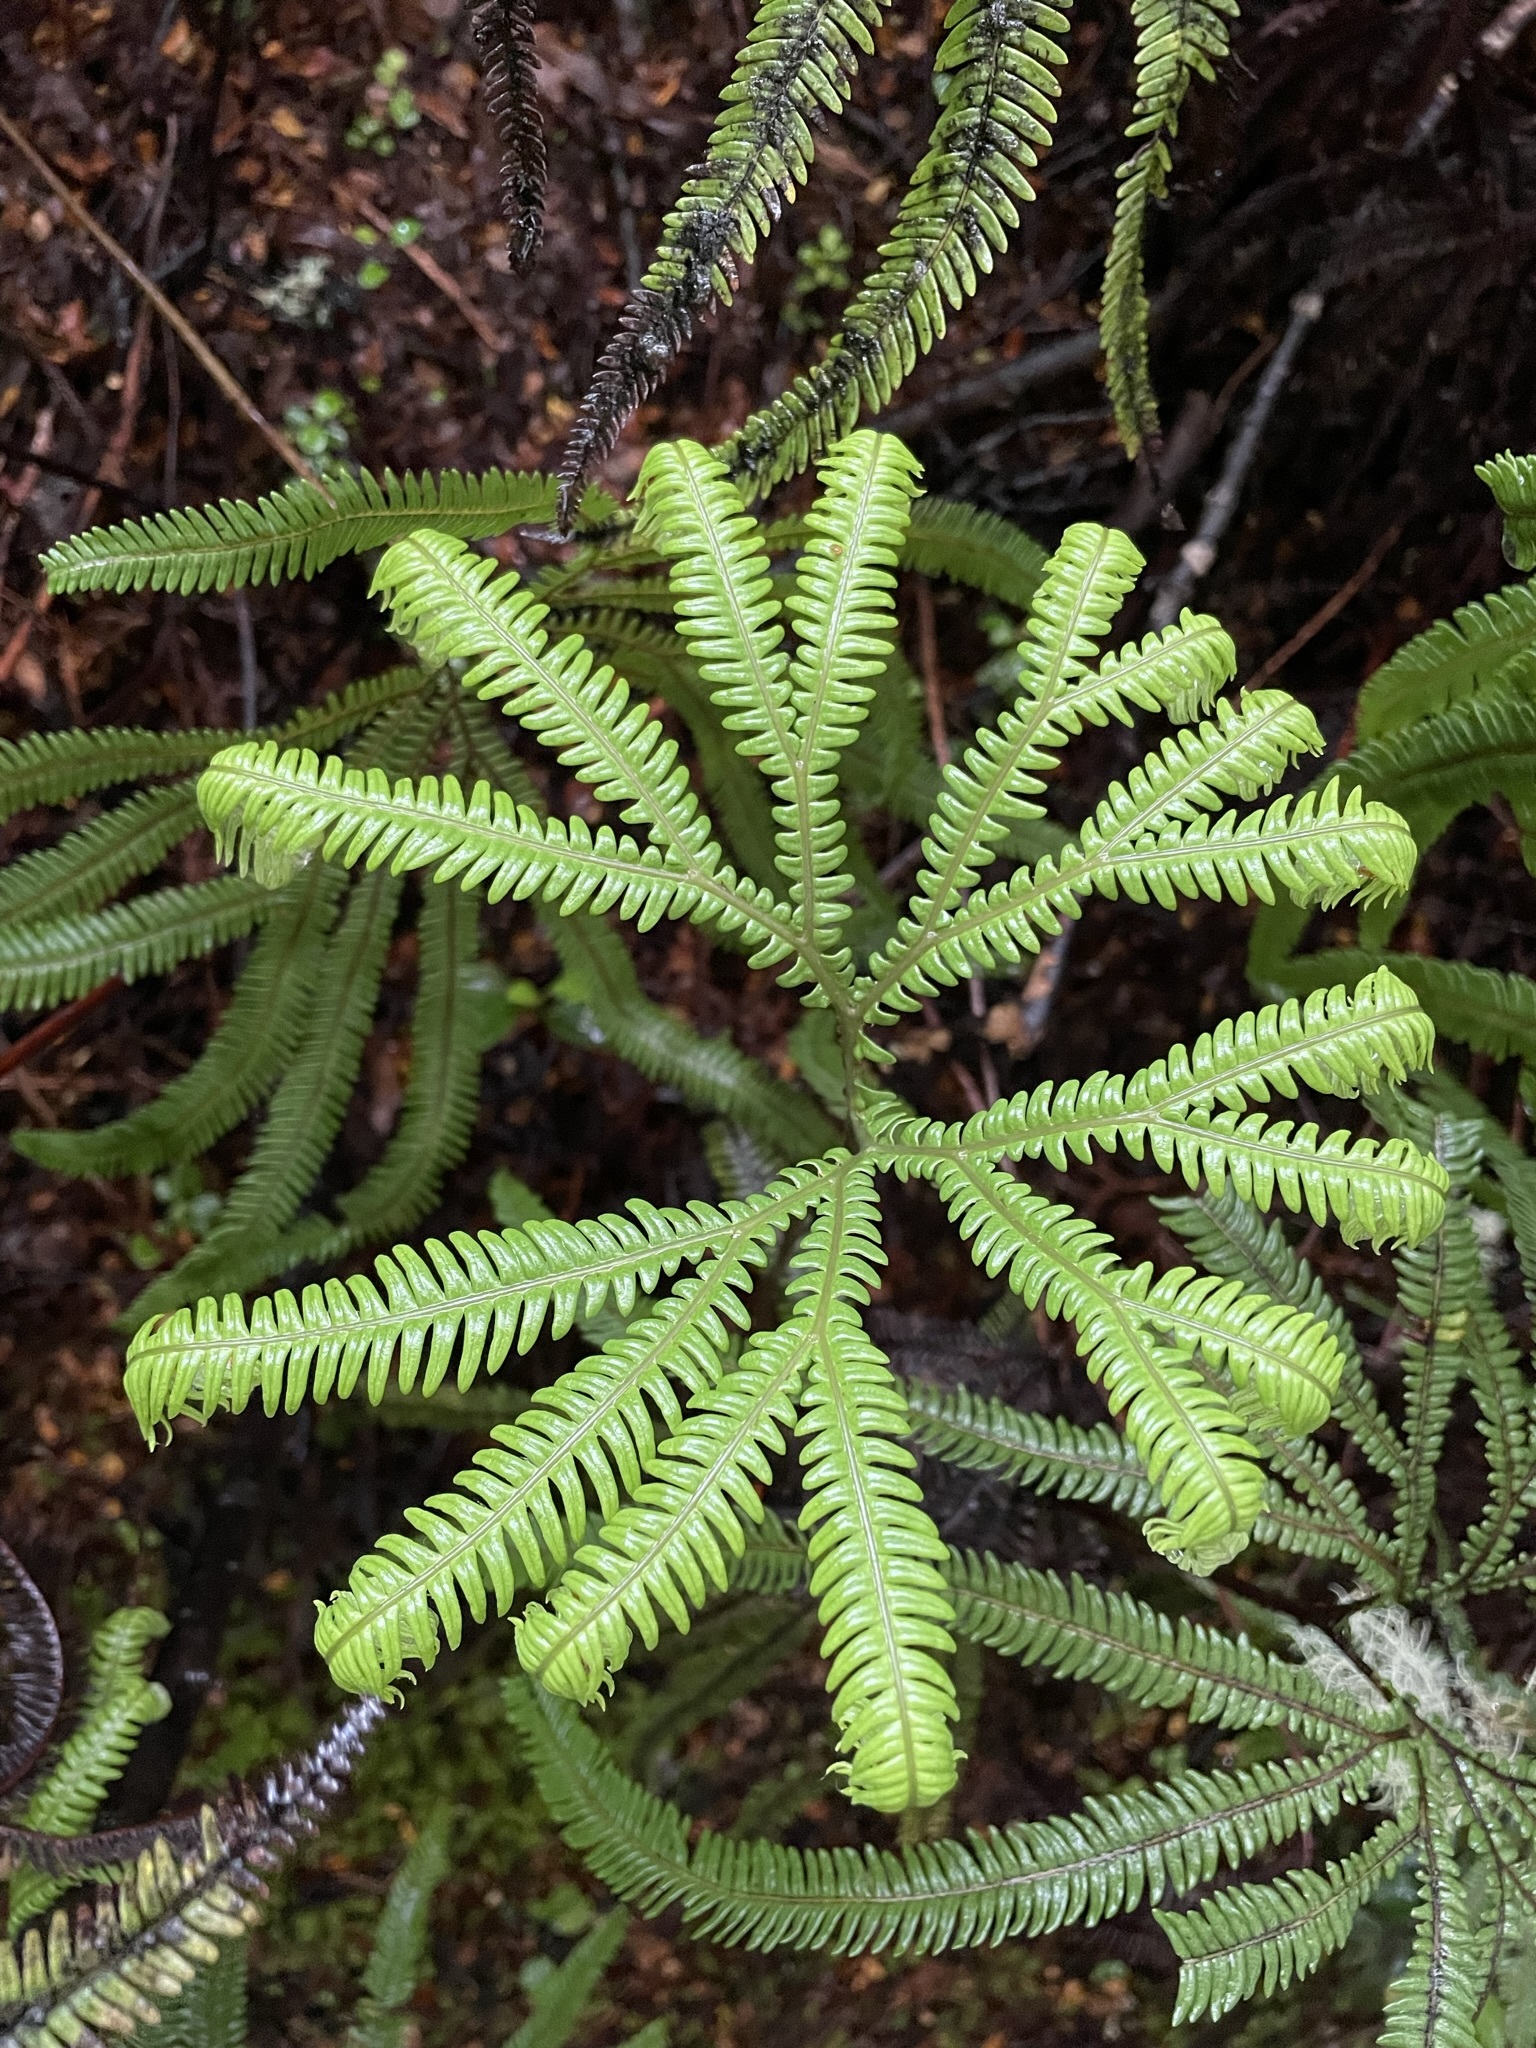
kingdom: Plantae
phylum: Tracheophyta
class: Polypodiopsida
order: Gleicheniales
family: Gleicheniaceae
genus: Sticherus
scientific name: Sticherus cunninghamii
